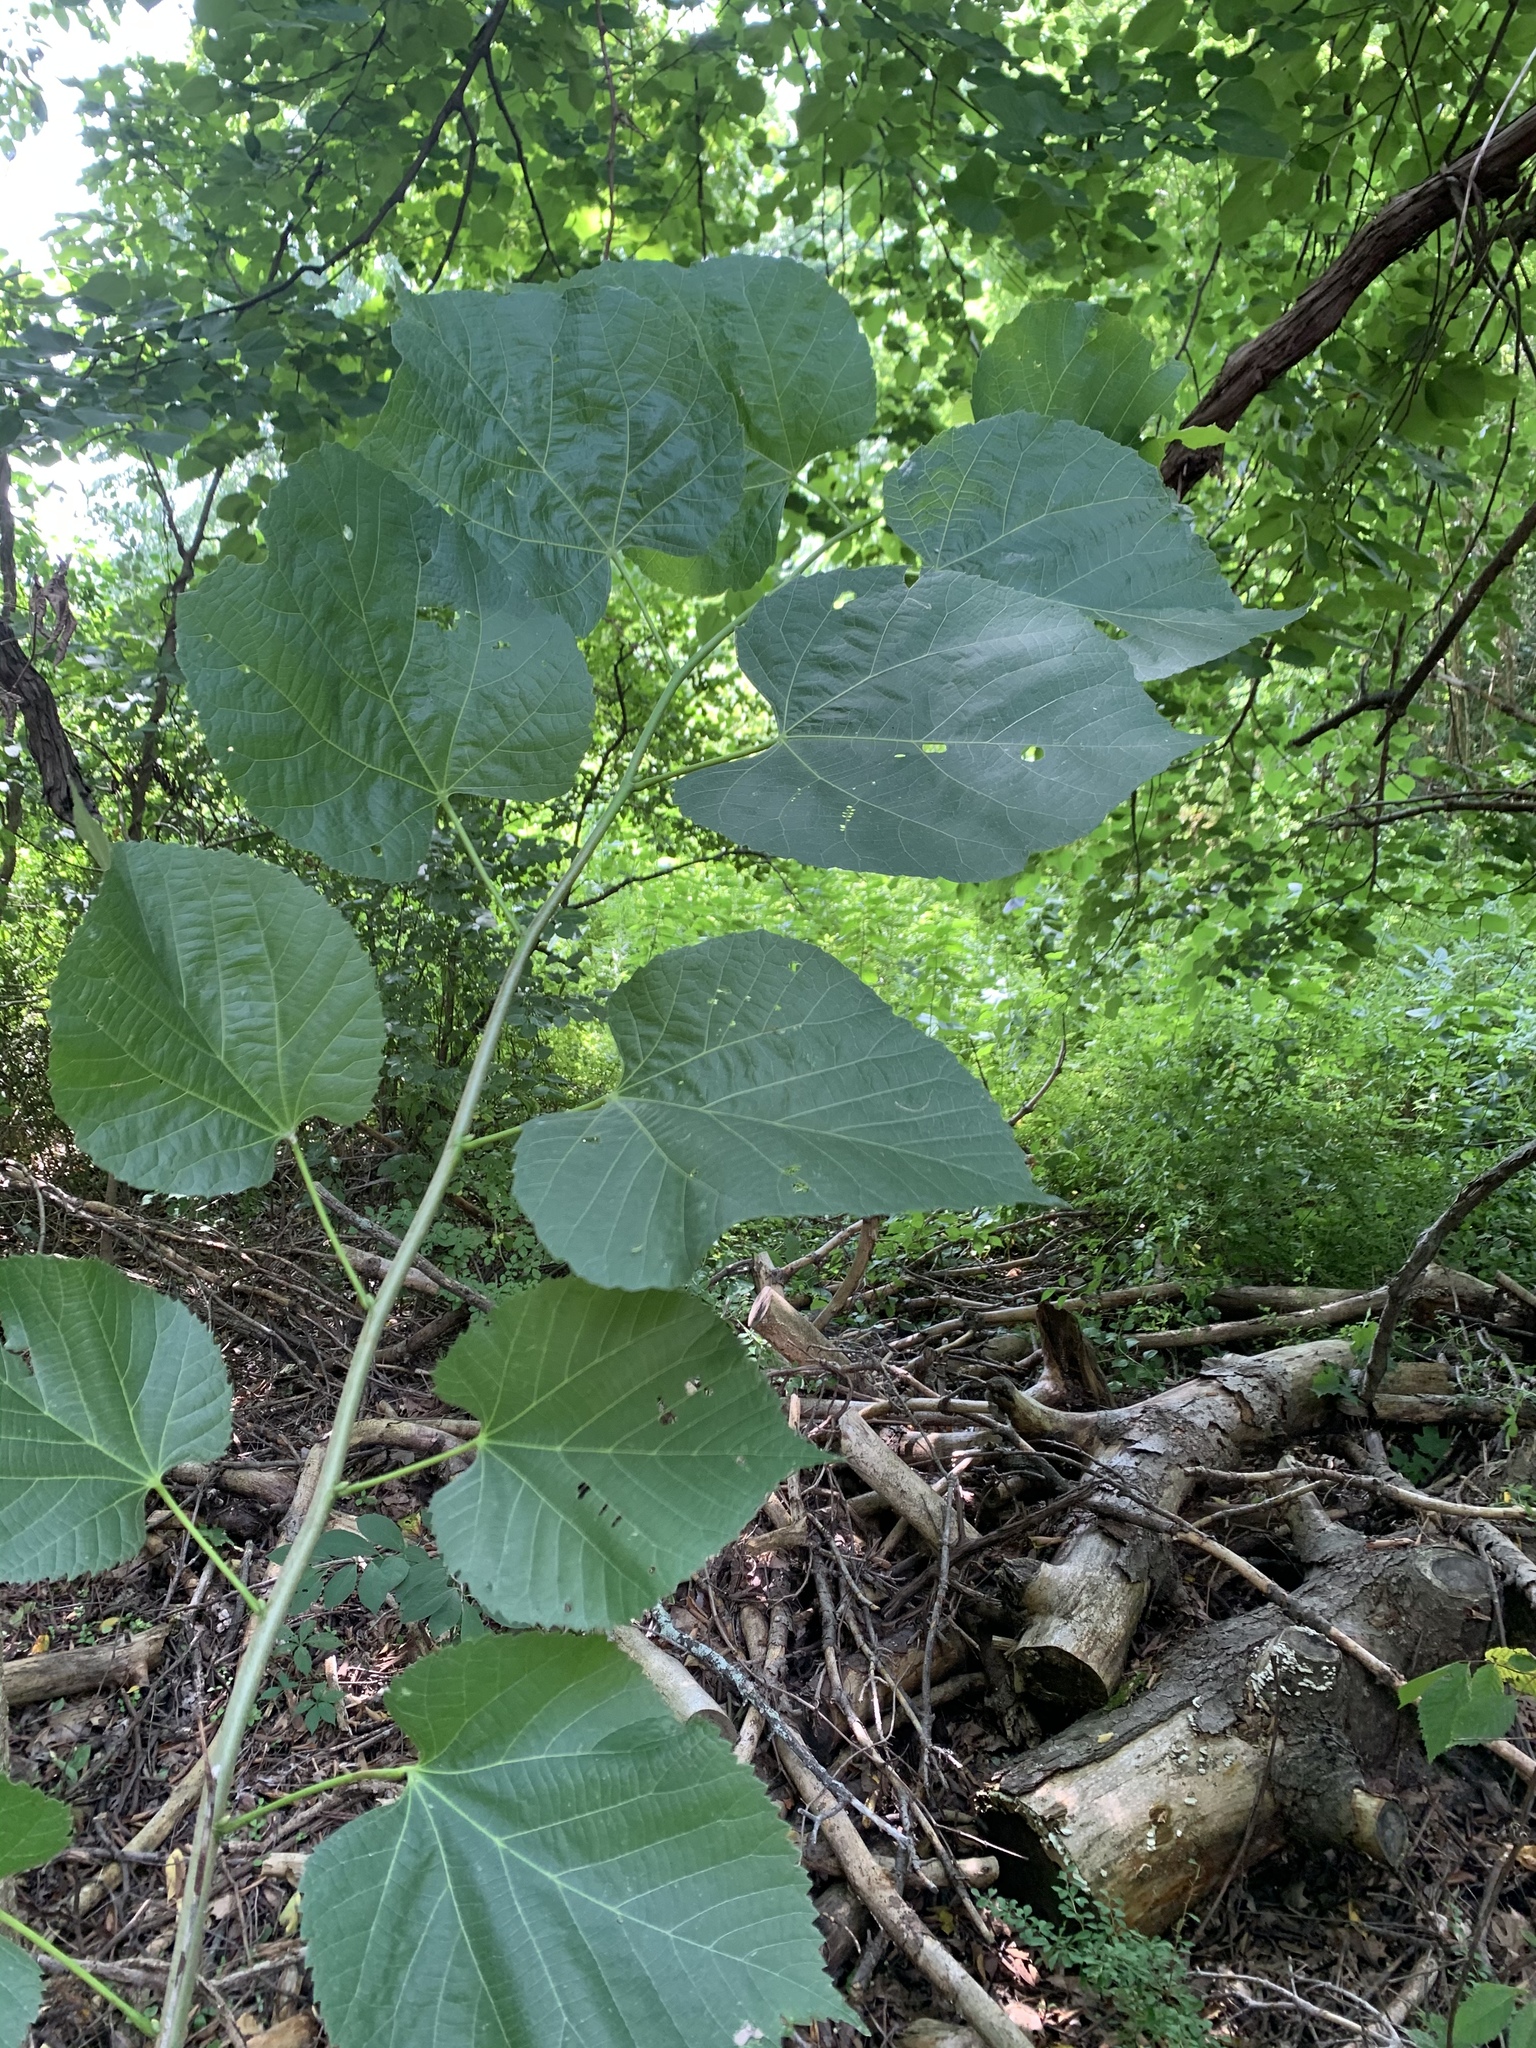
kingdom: Plantae
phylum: Tracheophyta
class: Magnoliopsida
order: Malvales
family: Malvaceae
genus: Tilia
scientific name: Tilia americana
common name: Basswood
